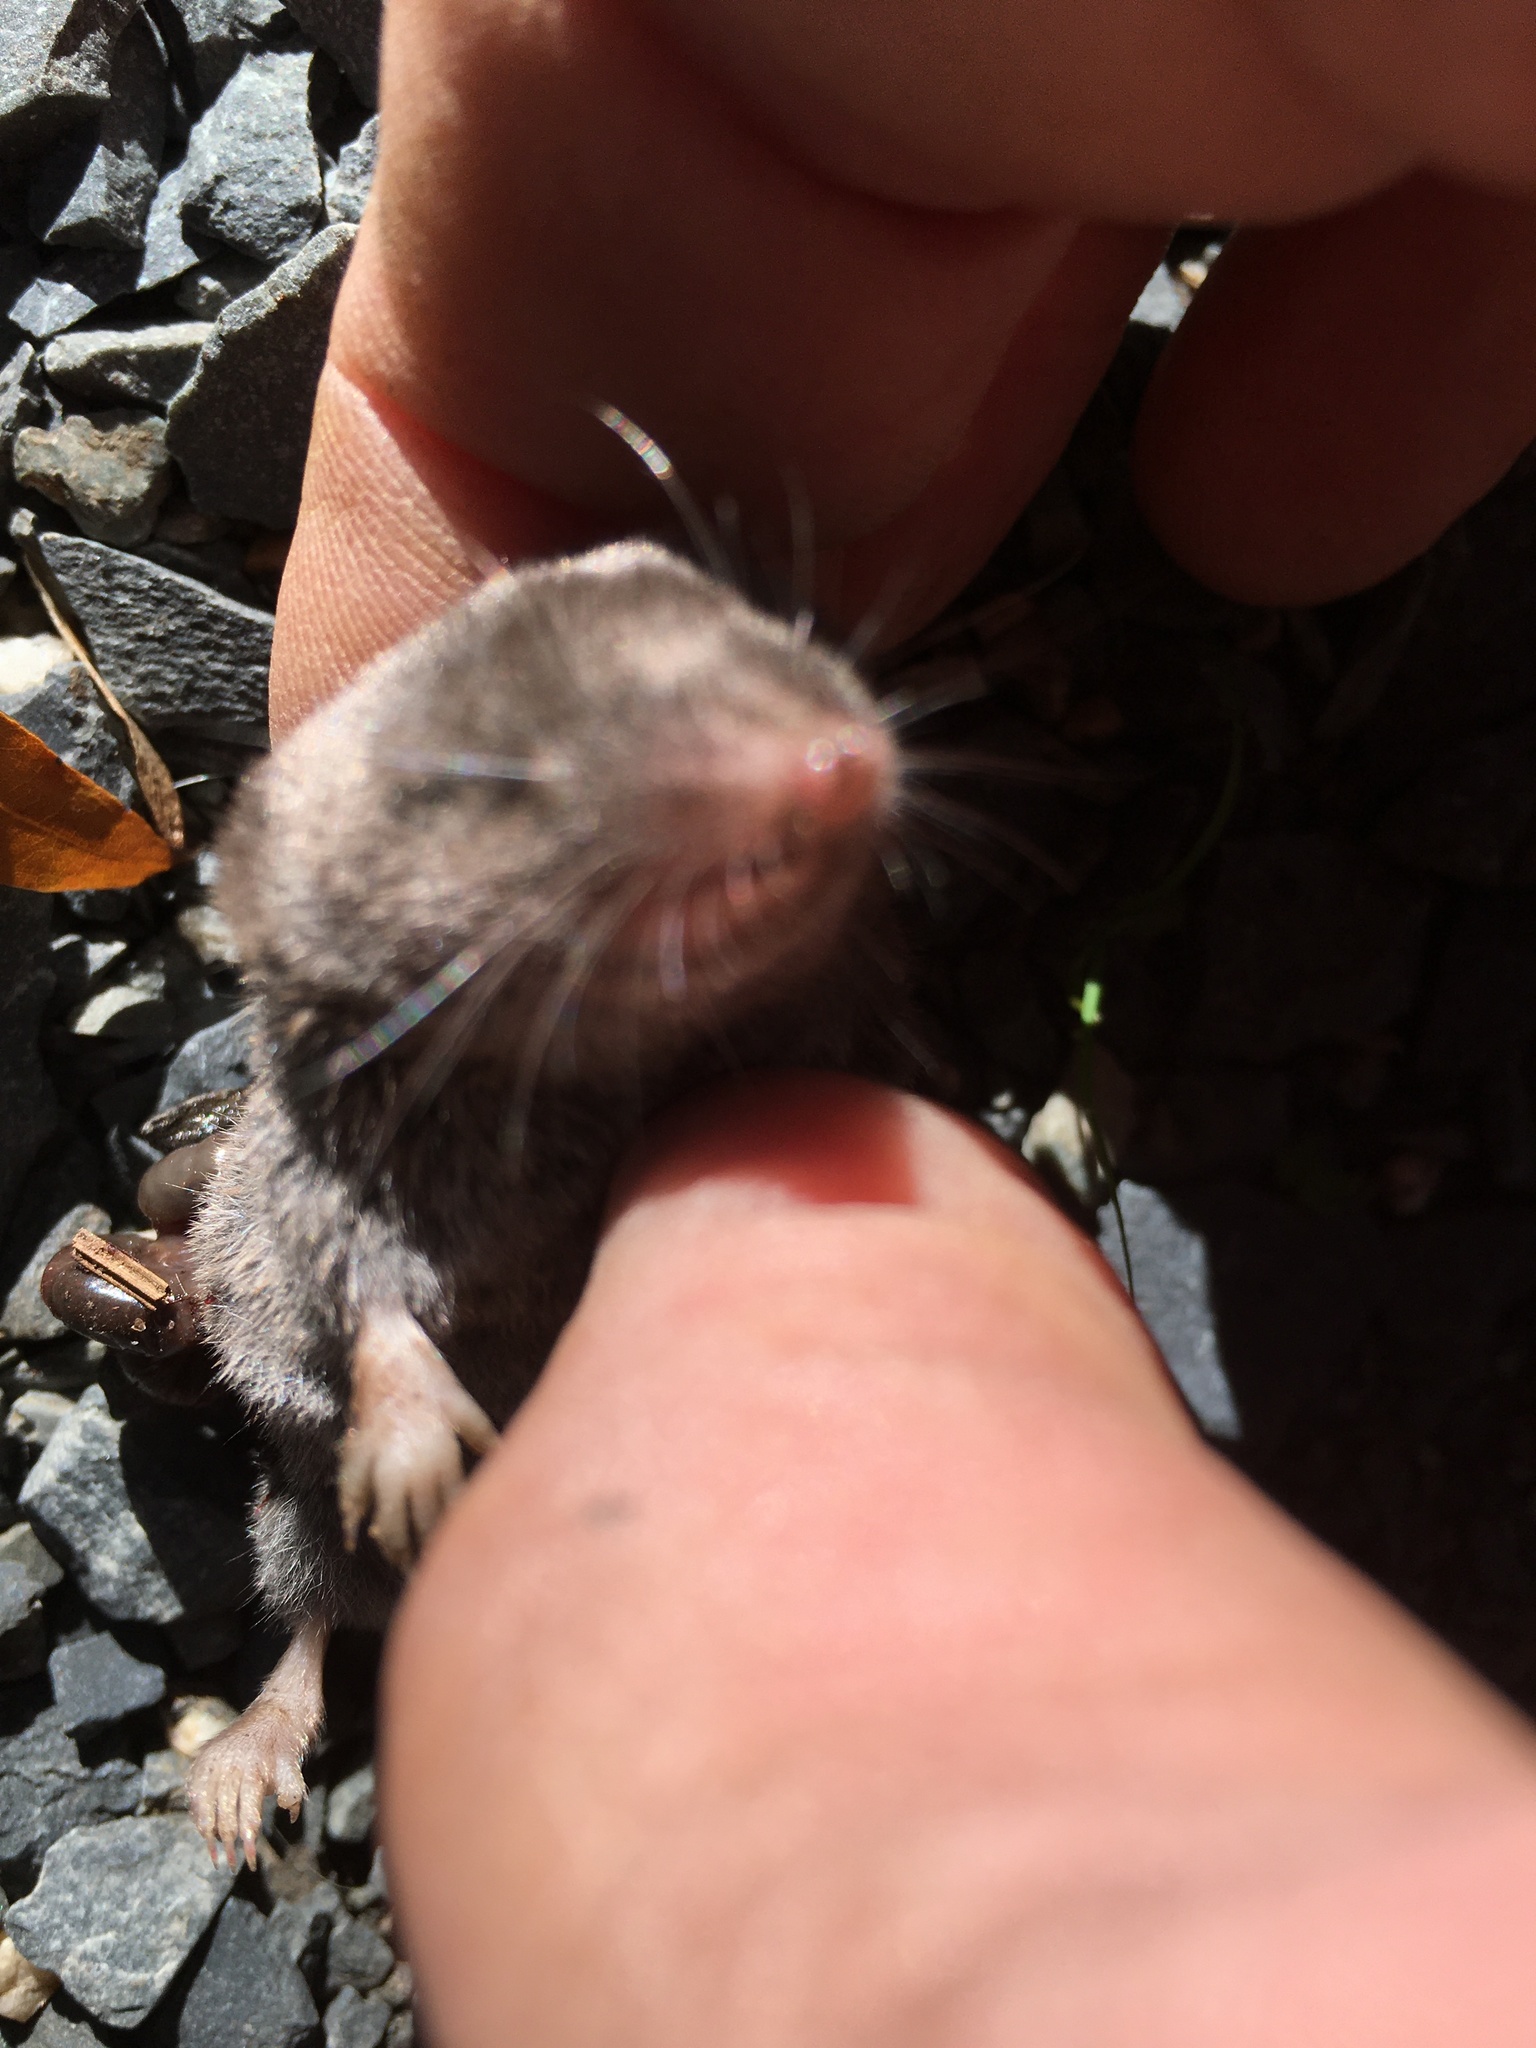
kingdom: Animalia
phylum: Chordata
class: Mammalia
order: Soricomorpha
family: Soricidae
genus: Blarina
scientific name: Blarina carolinensis
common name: Southern short-tailed shrew
